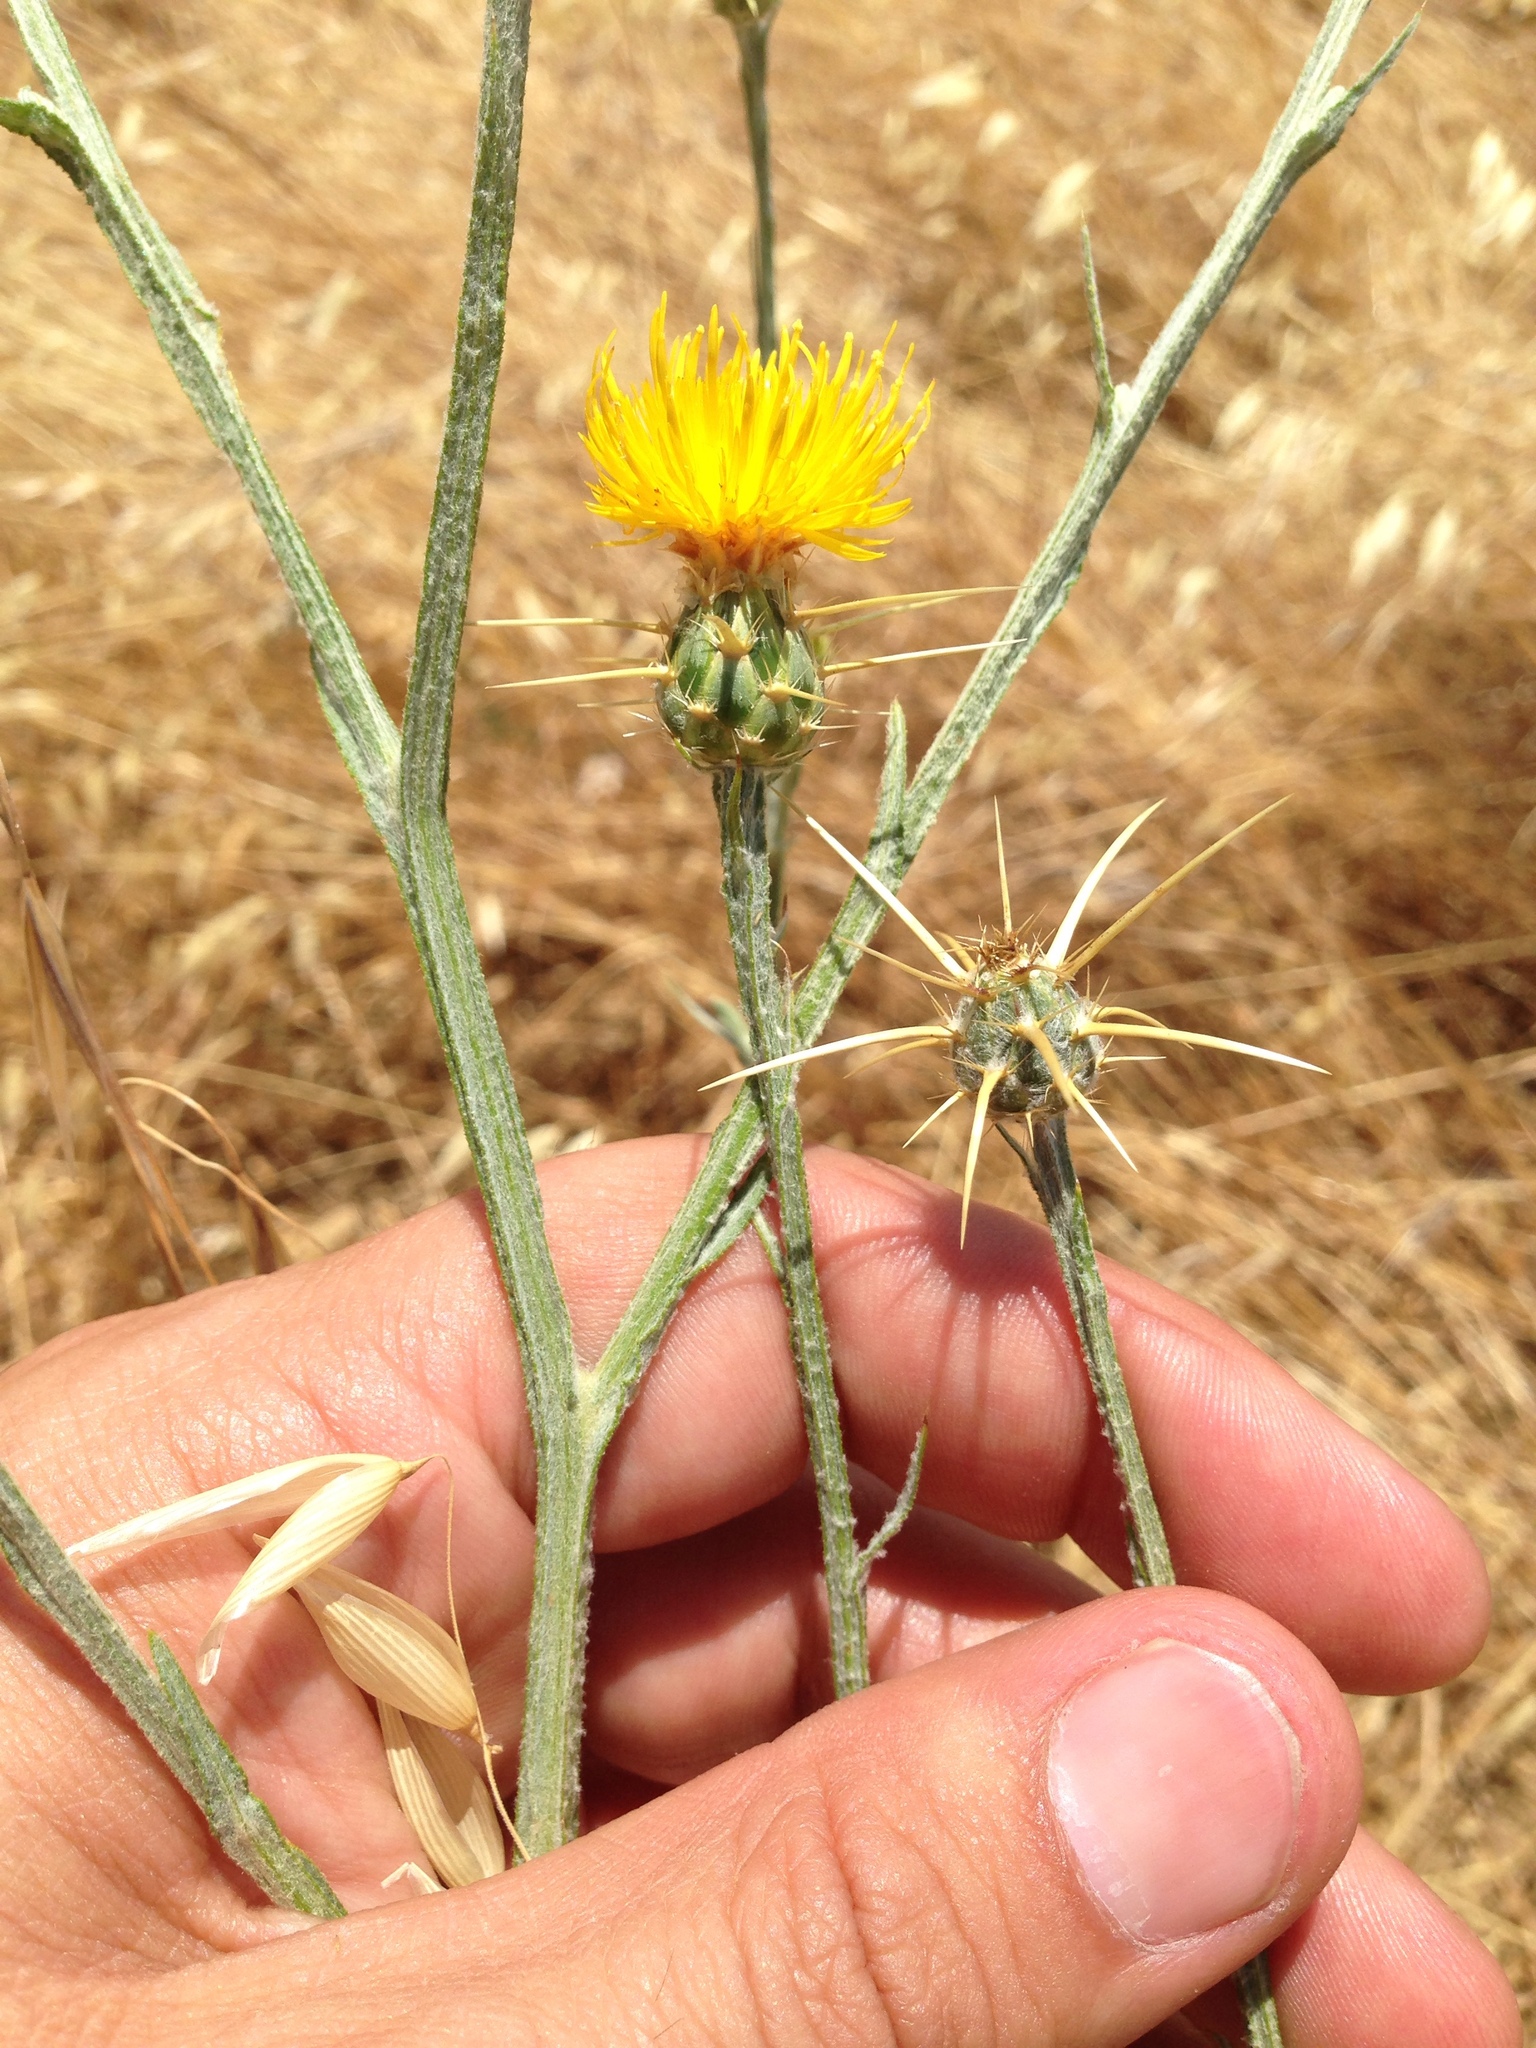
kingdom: Plantae
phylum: Tracheophyta
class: Magnoliopsida
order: Asterales
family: Asteraceae
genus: Centaurea
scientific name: Centaurea solstitialis
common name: Yellow star-thistle
